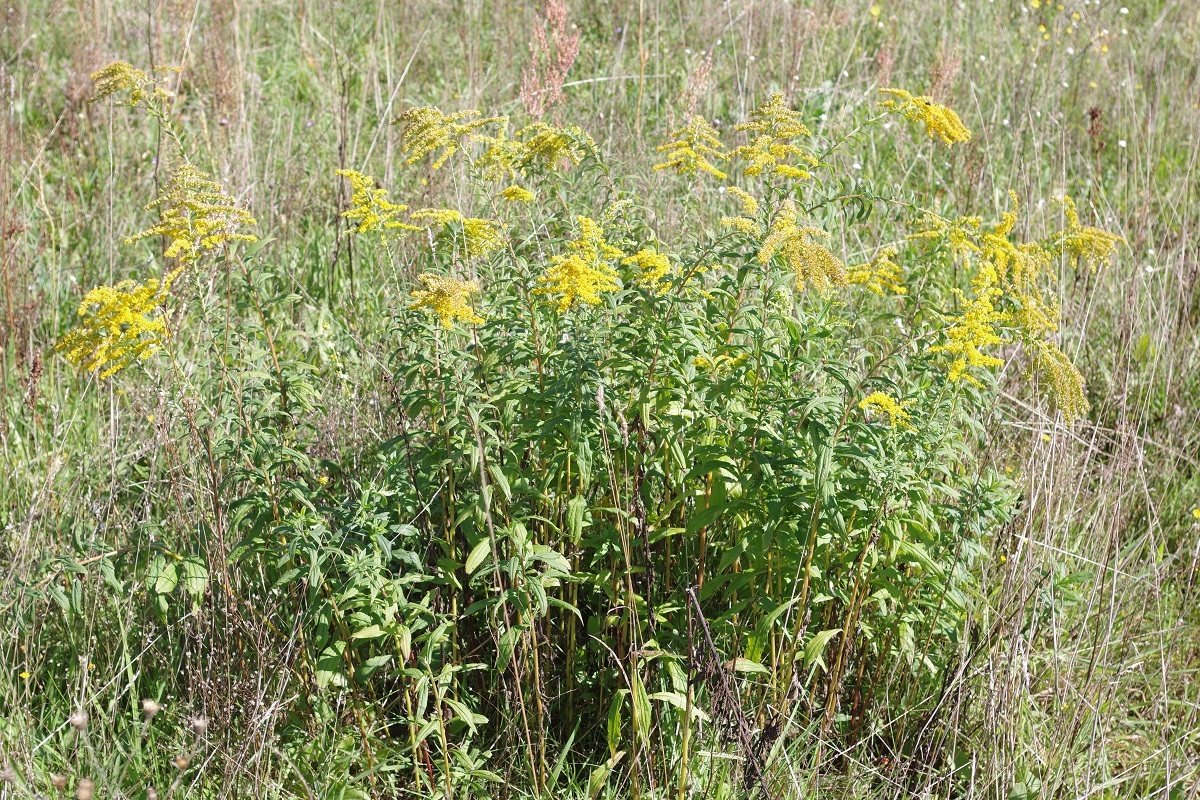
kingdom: Plantae
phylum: Tracheophyta
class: Magnoliopsida
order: Asterales
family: Asteraceae
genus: Solidago
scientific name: Solidago canadensis
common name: Canada goldenrod
